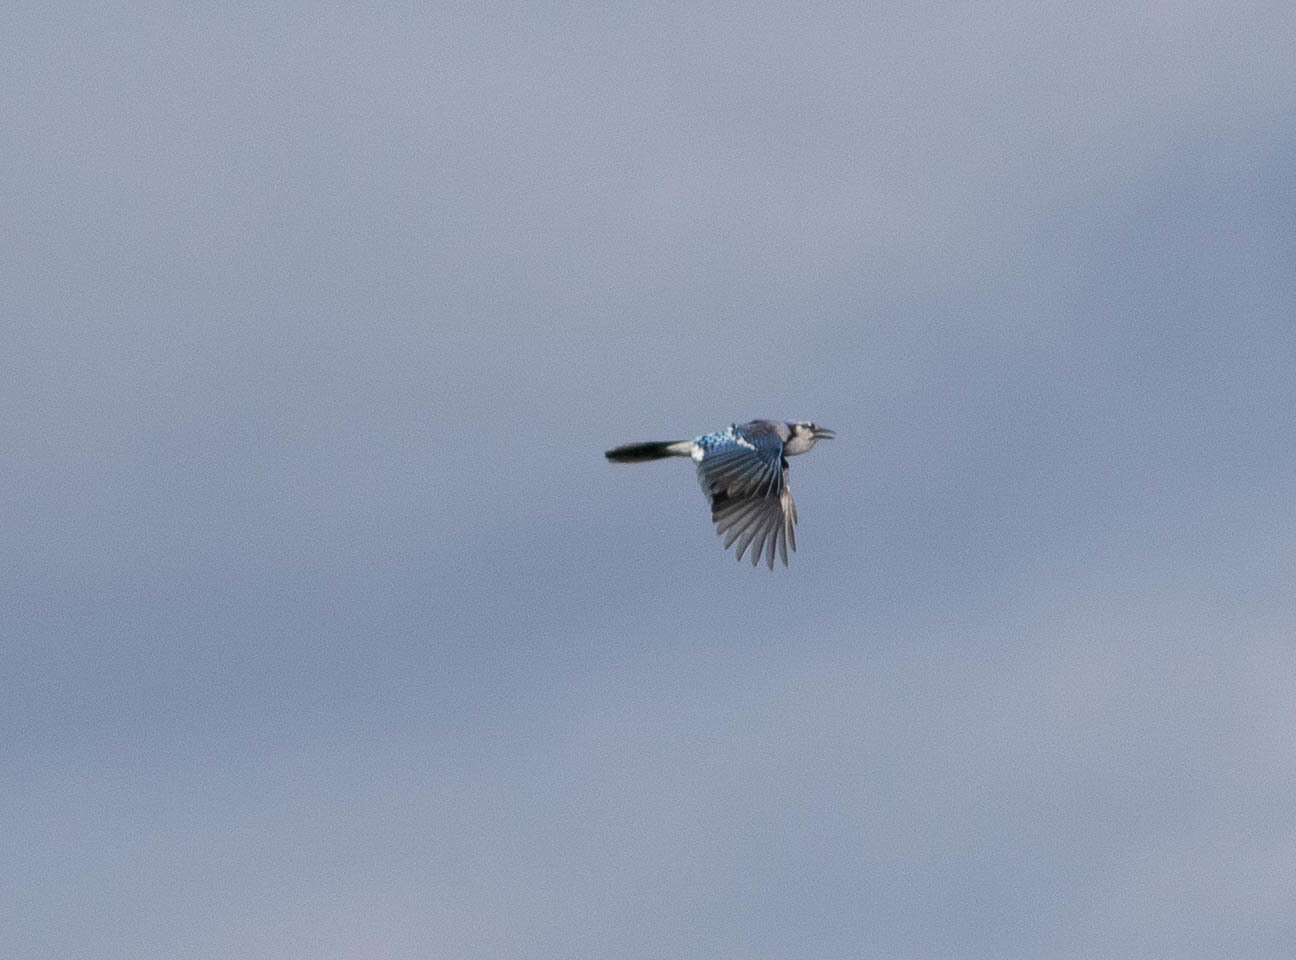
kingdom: Animalia
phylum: Chordata
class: Aves
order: Passeriformes
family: Corvidae
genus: Cyanocitta
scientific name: Cyanocitta cristata
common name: Blue jay
